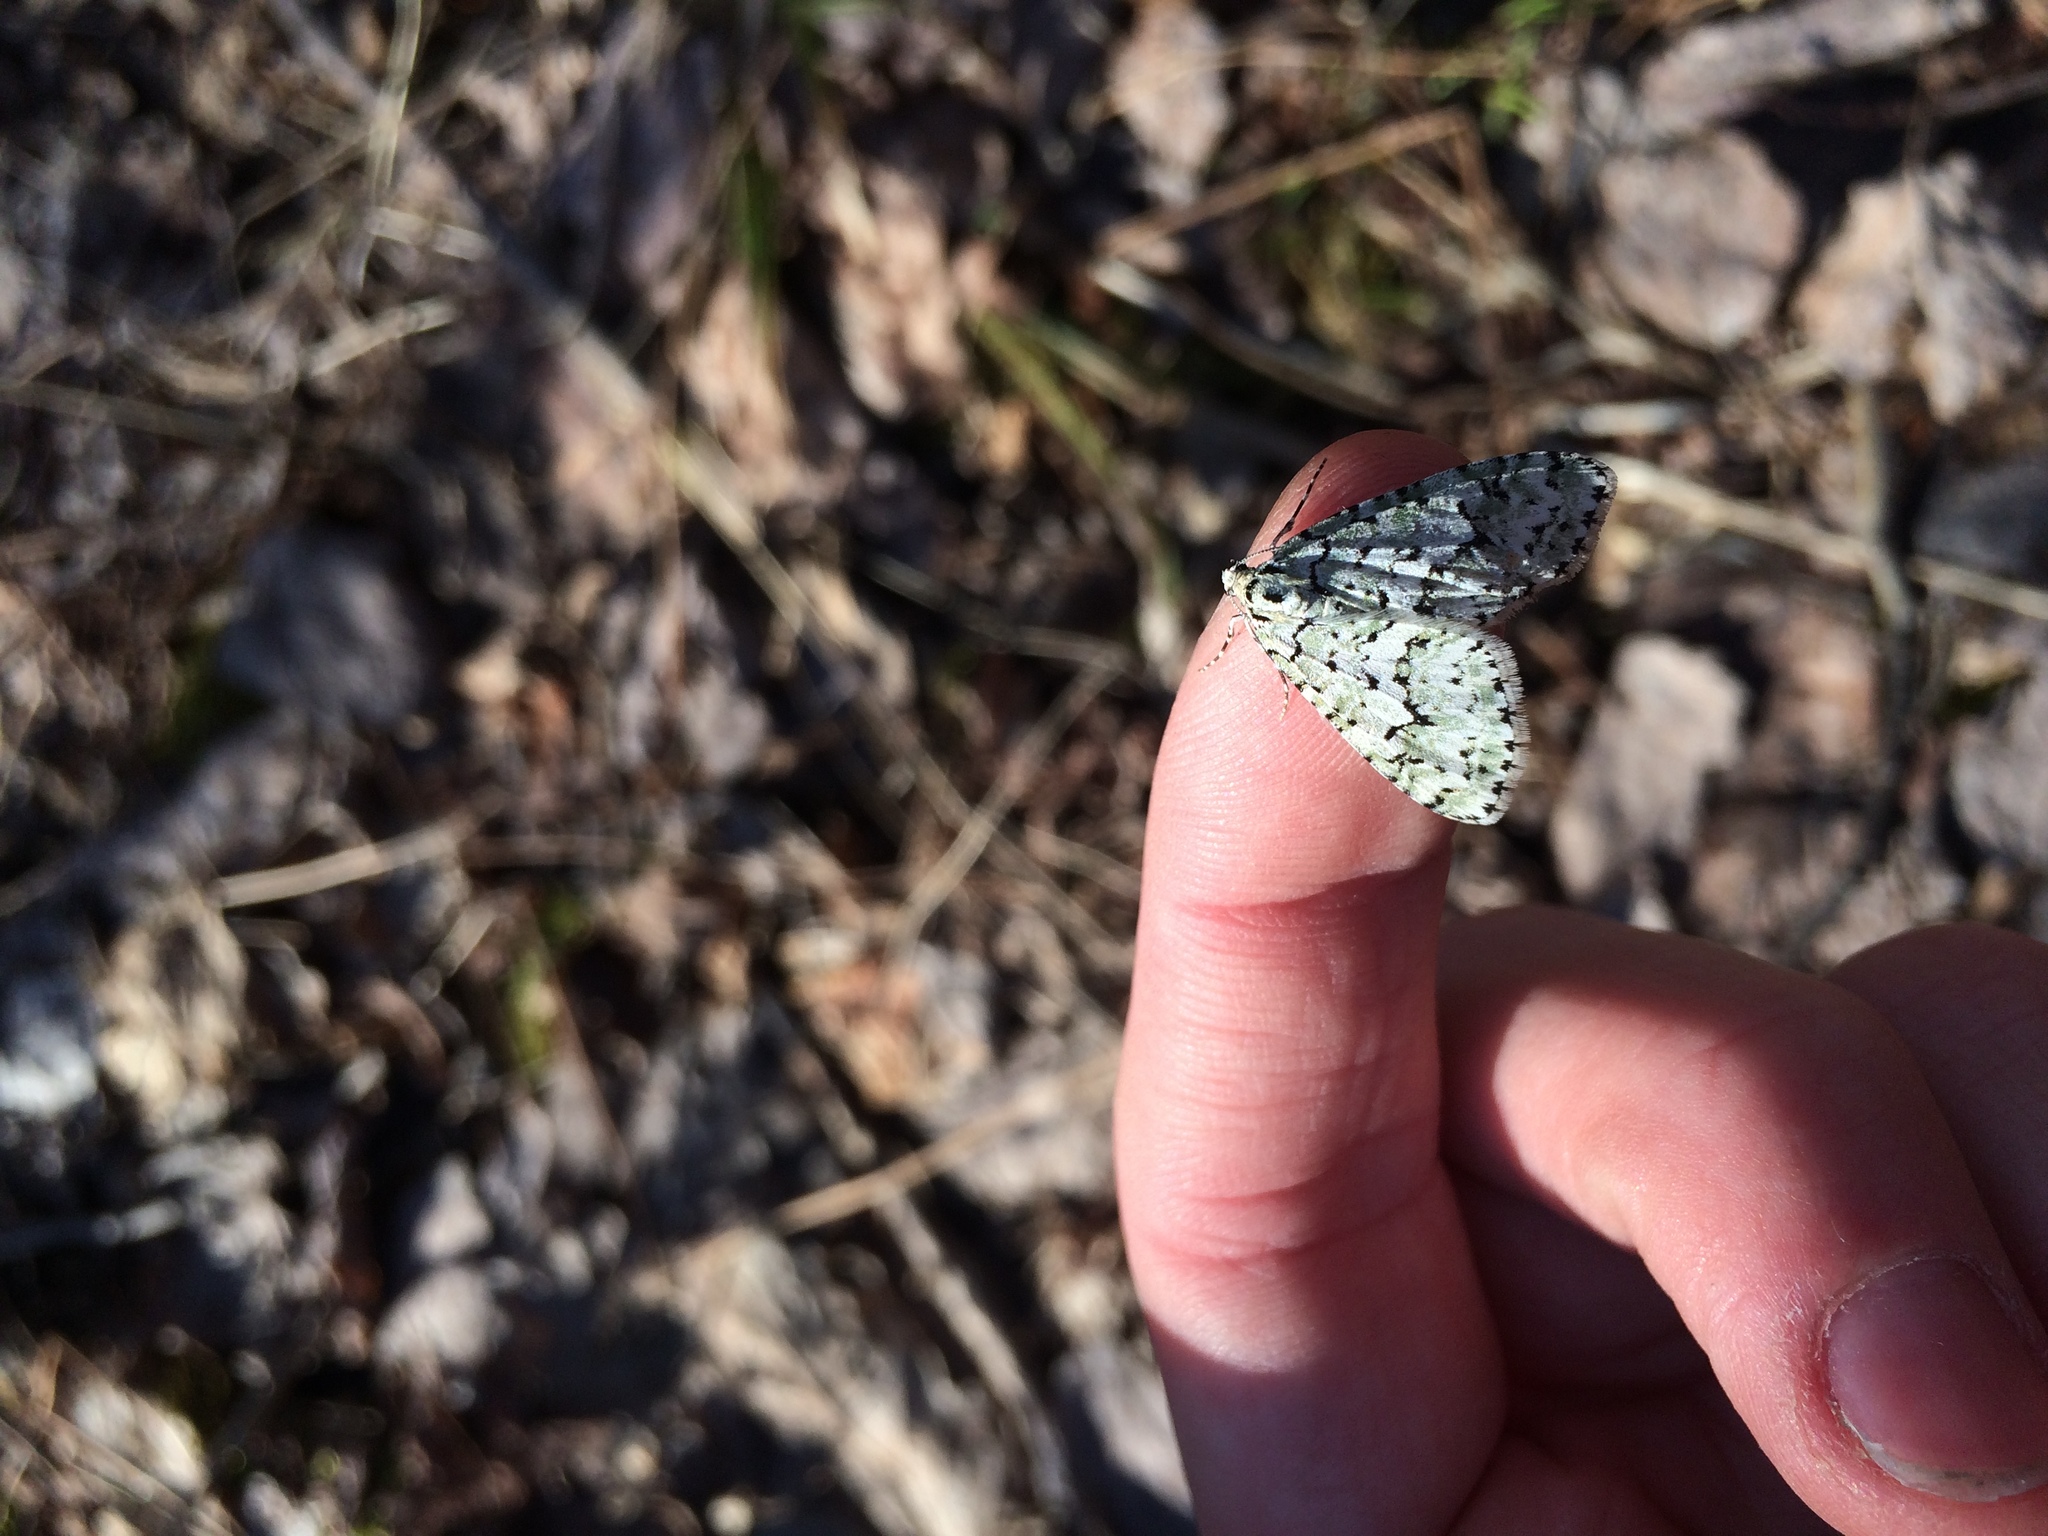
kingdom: Animalia
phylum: Arthropoda
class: Insecta
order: Lepidoptera
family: Geometridae
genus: Cladara
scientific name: Cladara atroliturata
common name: Scribbler
